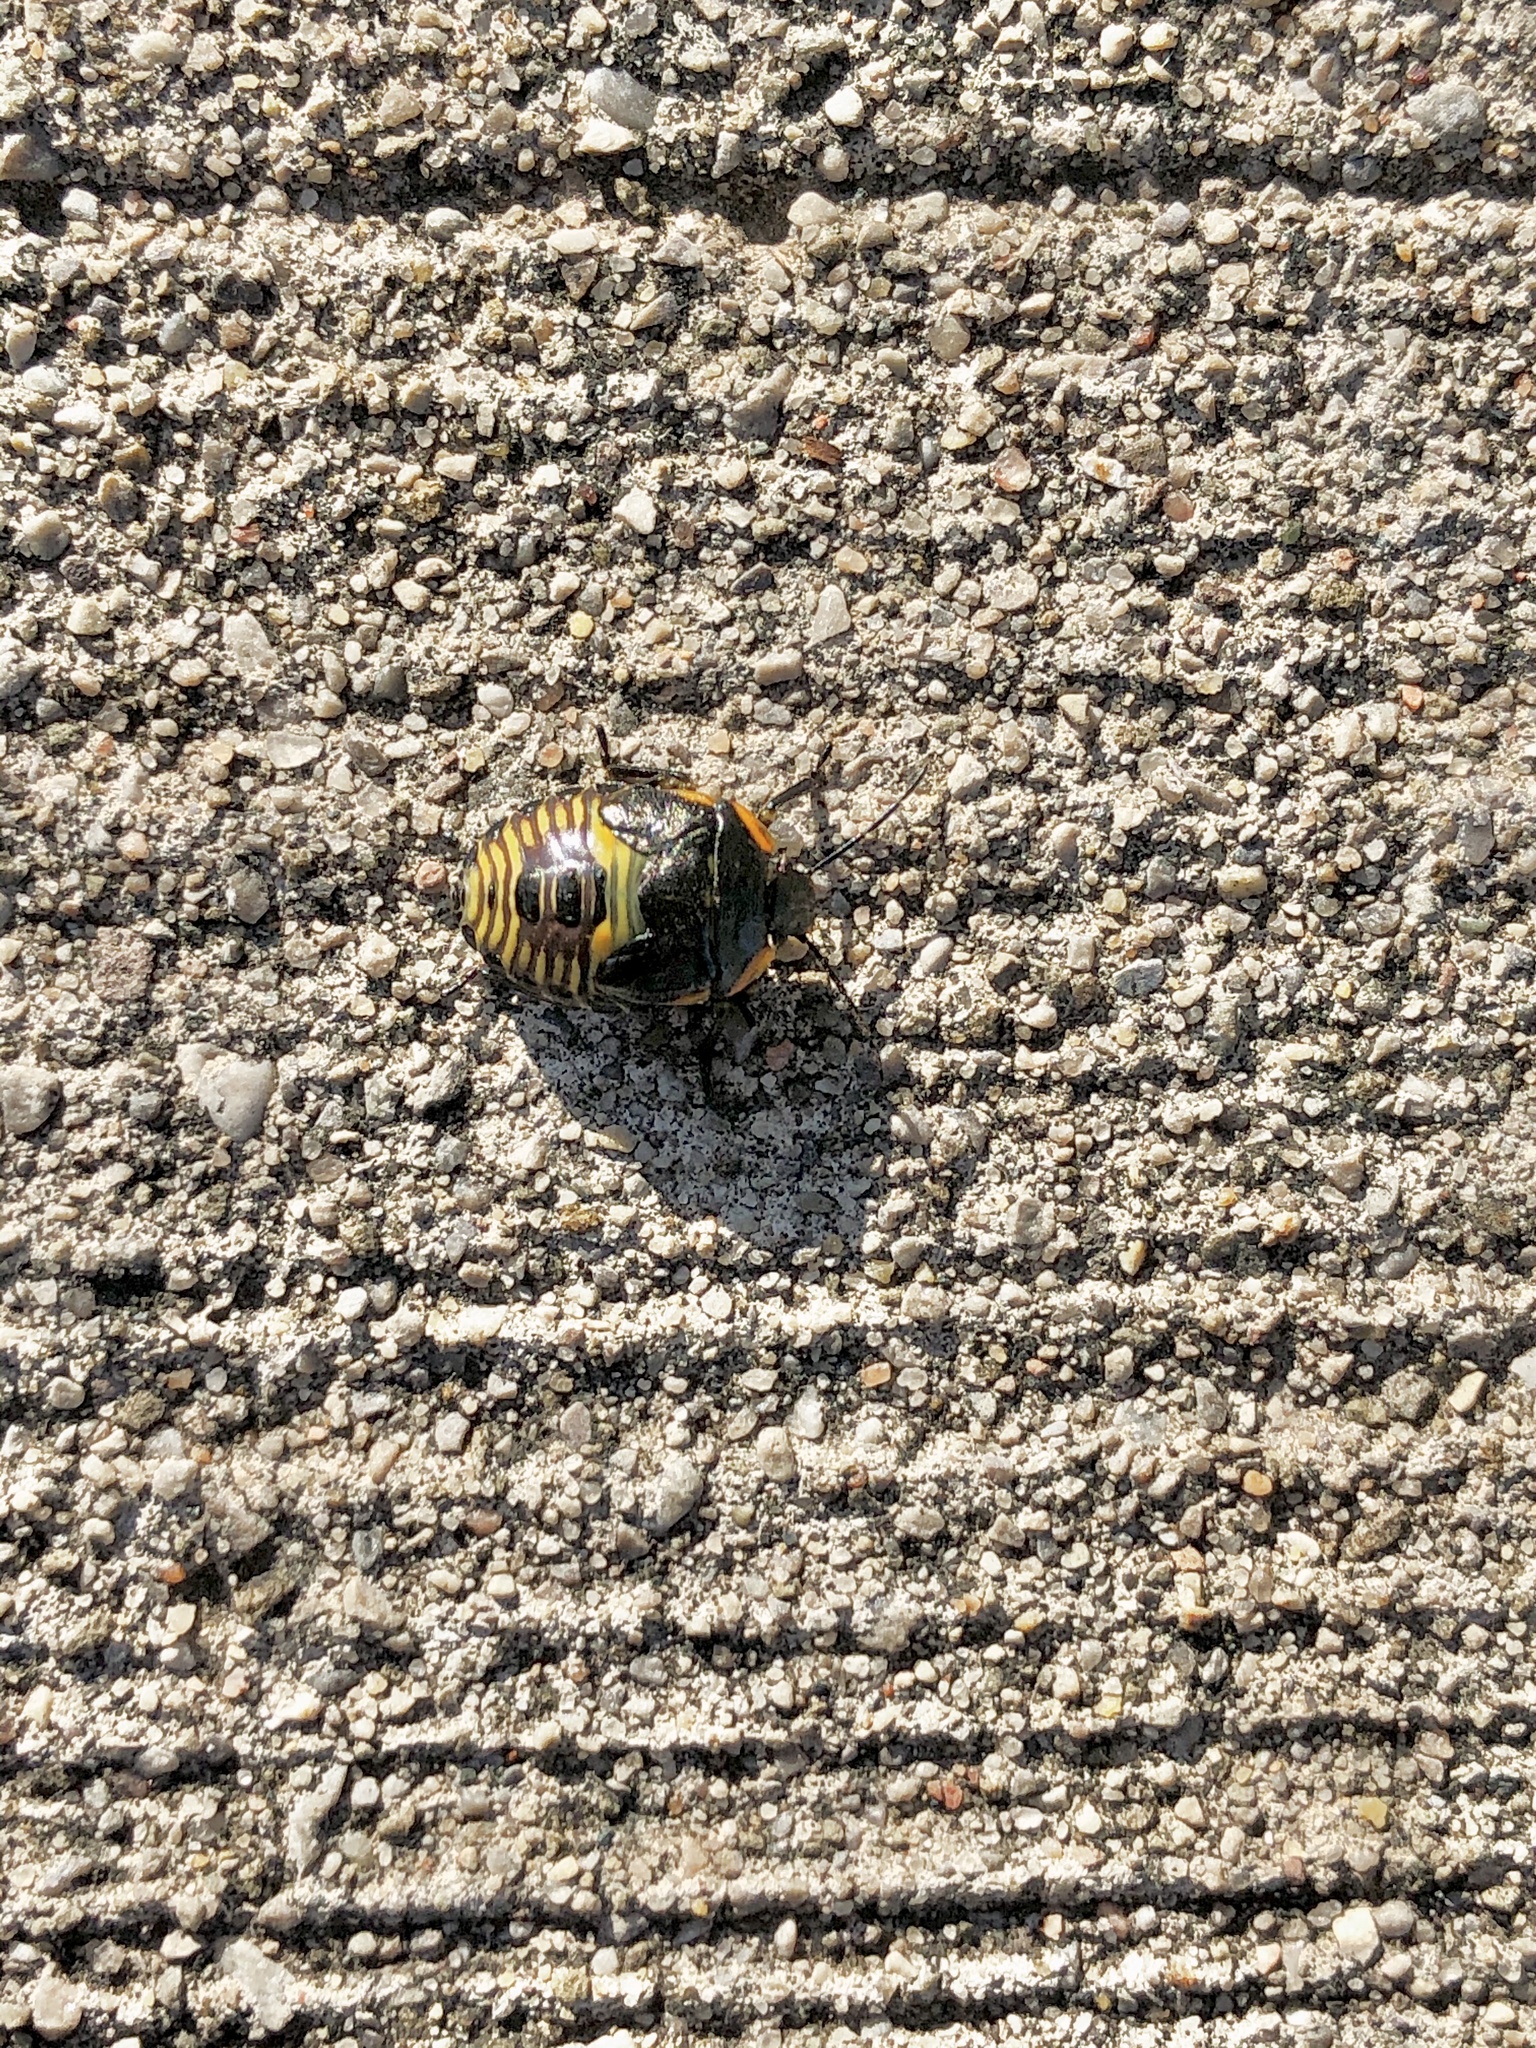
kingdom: Animalia
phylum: Arthropoda
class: Insecta
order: Hemiptera
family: Pentatomidae
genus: Chinavia
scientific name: Chinavia hilaris
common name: Green stink bug
